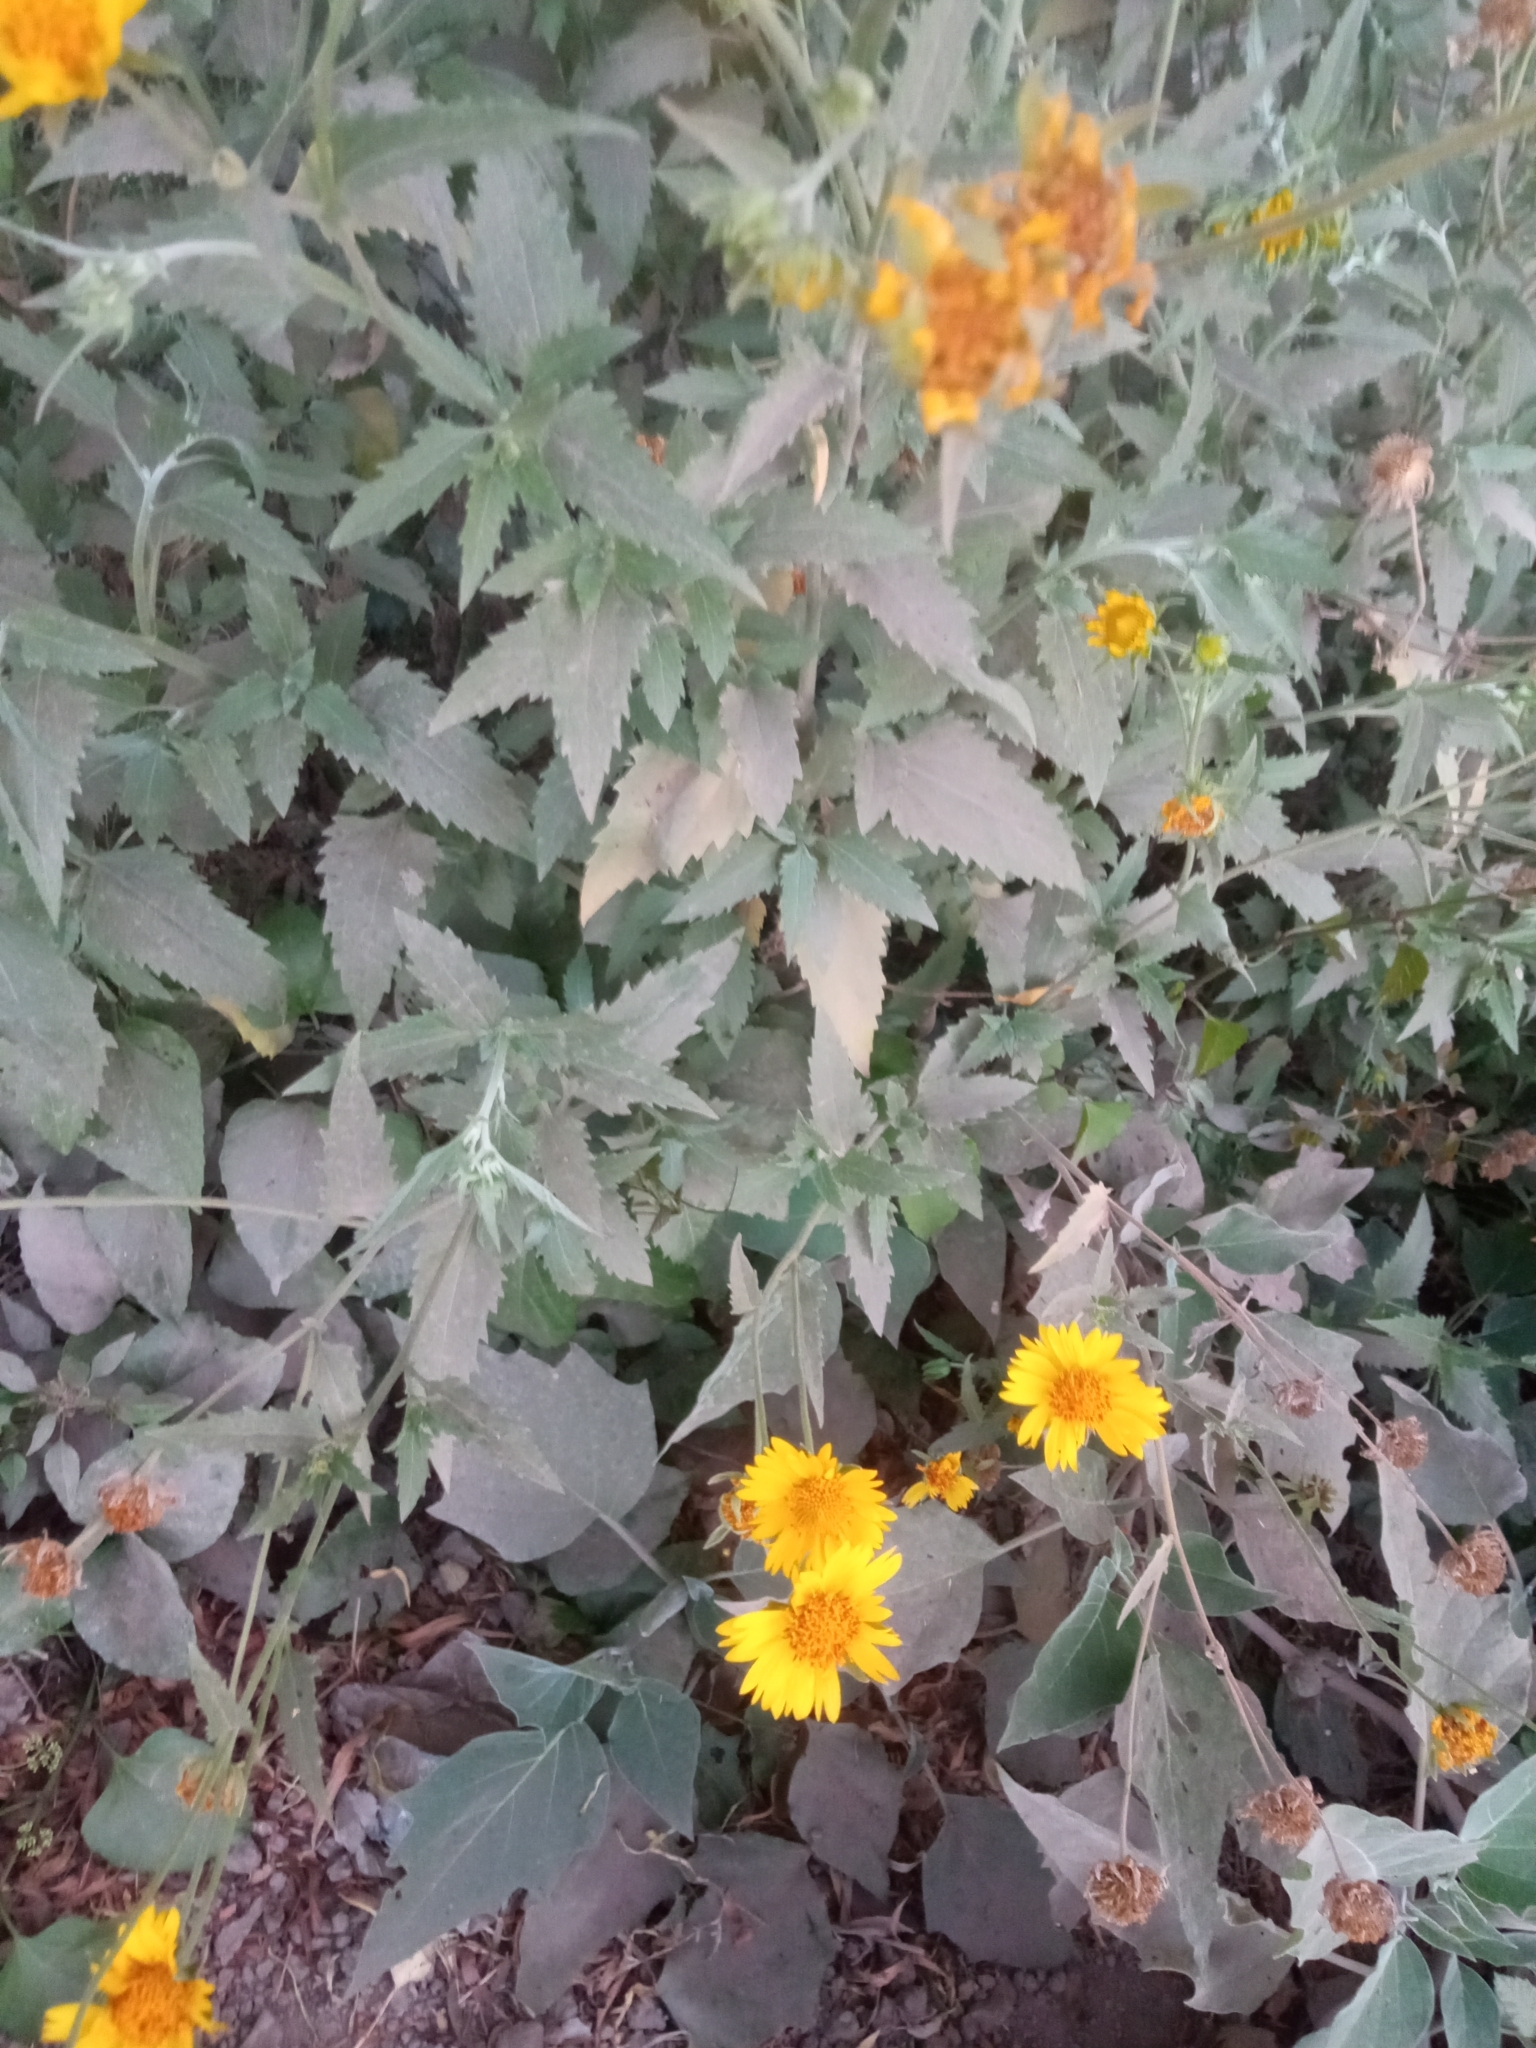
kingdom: Plantae
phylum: Tracheophyta
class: Magnoliopsida
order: Asterales
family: Asteraceae
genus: Verbesina
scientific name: Verbesina encelioides
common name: Golden crownbeard
